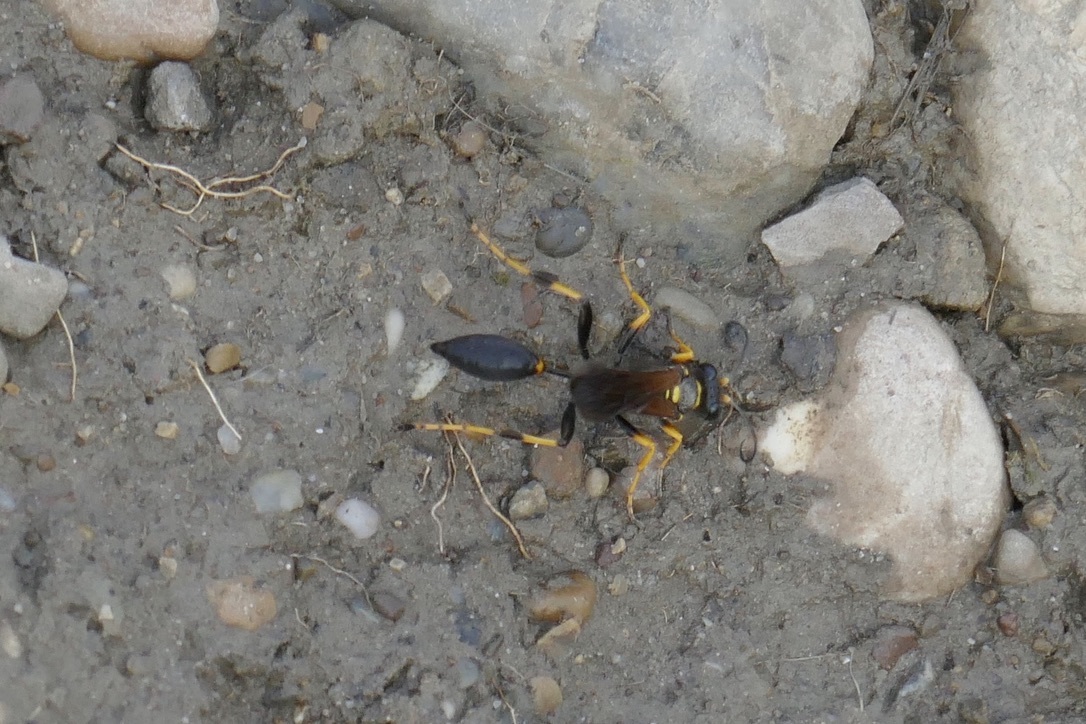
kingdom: Animalia
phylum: Arthropoda
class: Insecta
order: Hymenoptera
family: Sphecidae
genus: Sceliphron
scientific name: Sceliphron caementarium
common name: Mud dauber
